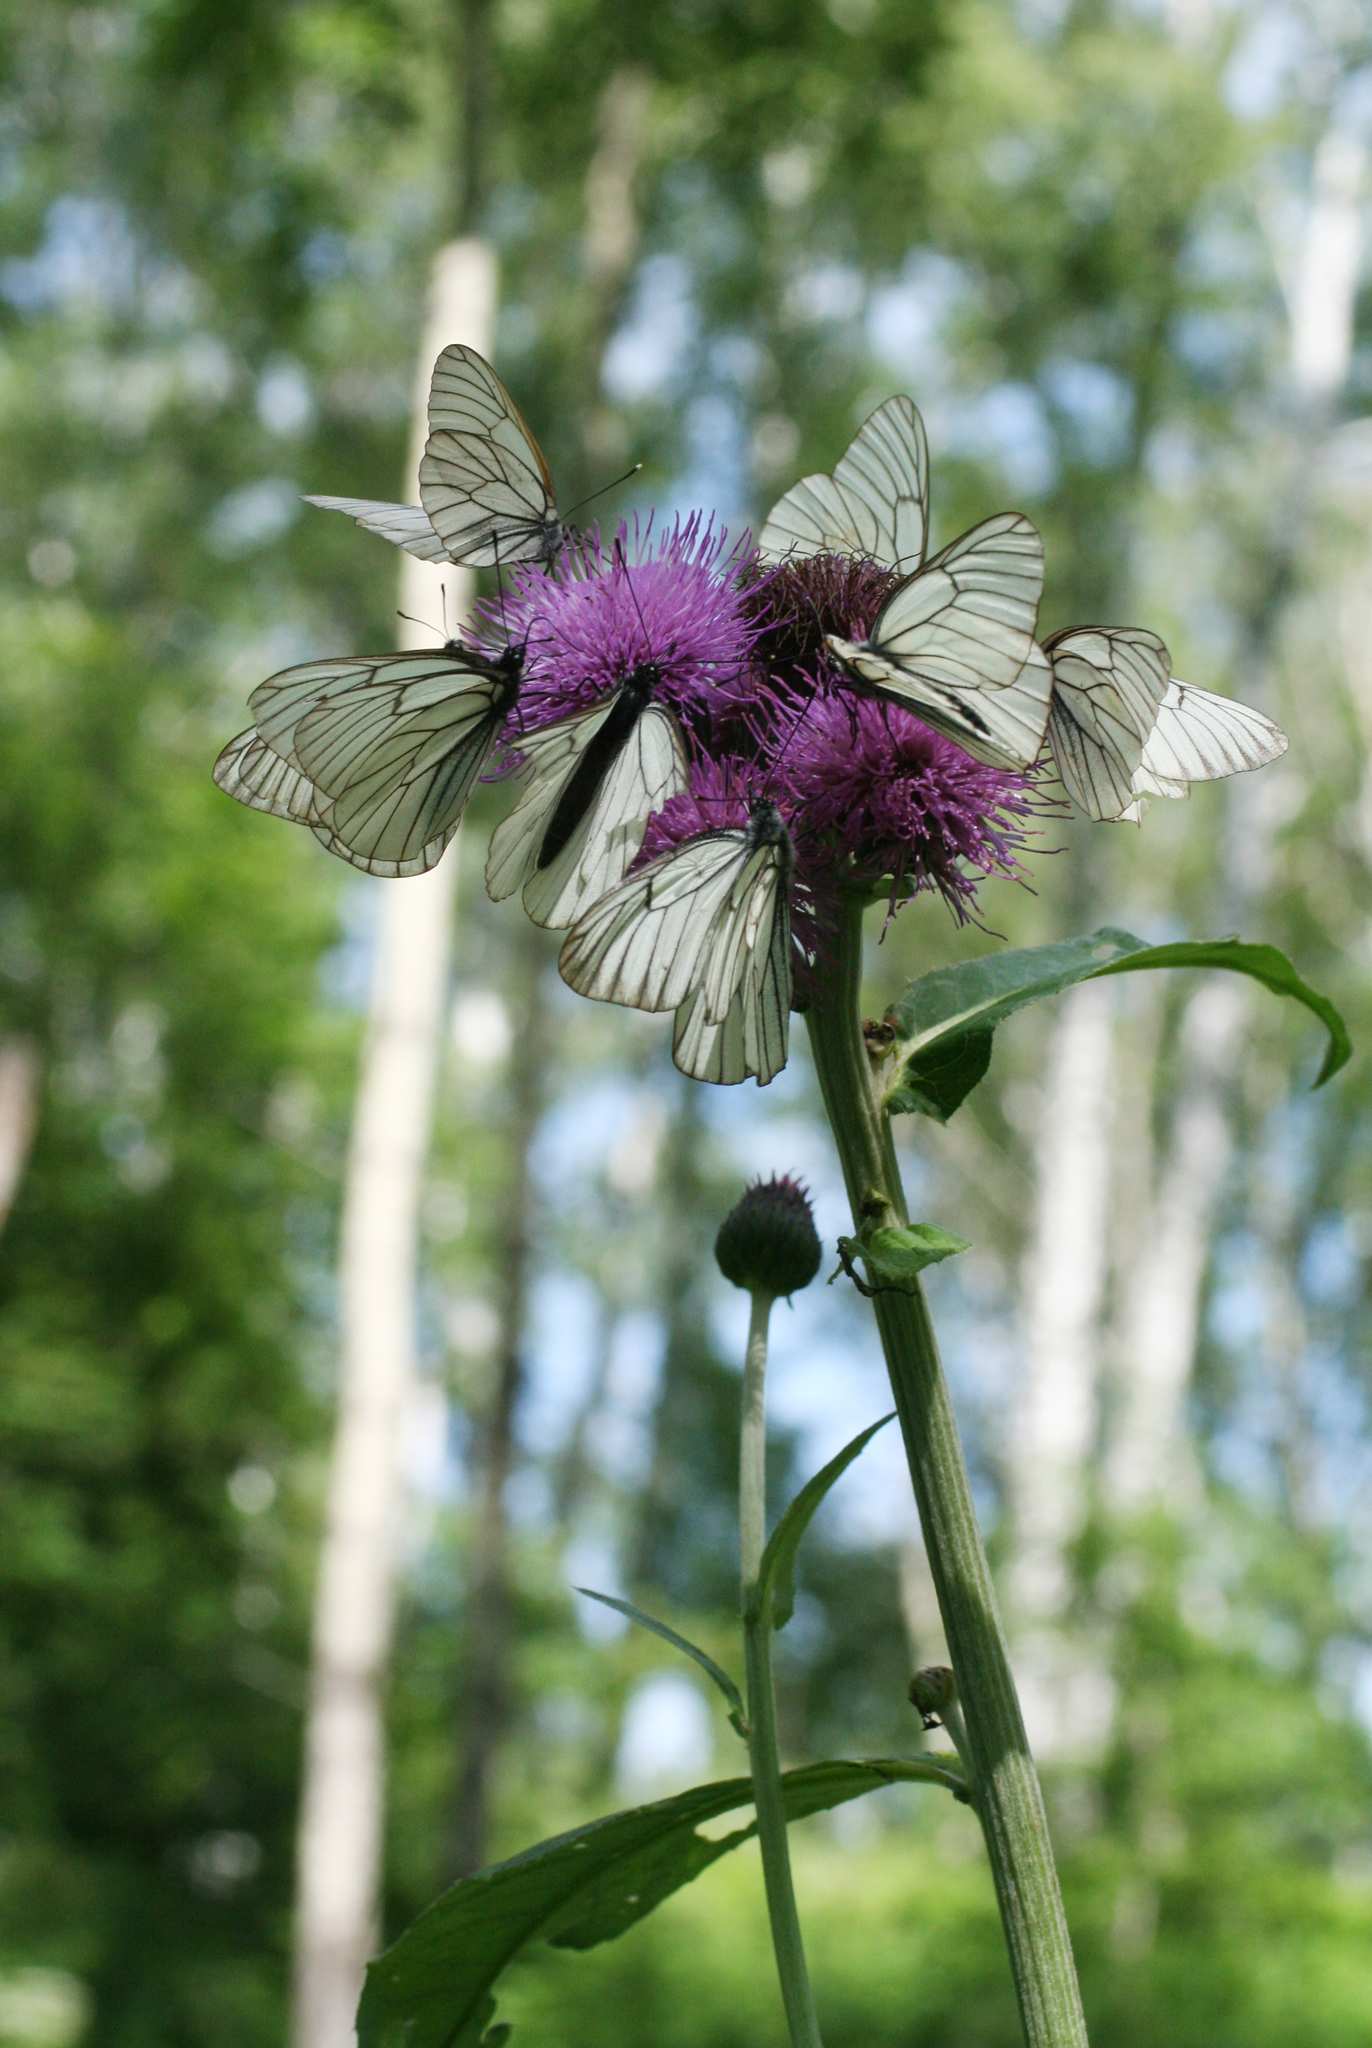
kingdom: Animalia
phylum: Arthropoda
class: Insecta
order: Lepidoptera
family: Pieridae
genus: Aporia
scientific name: Aporia crataegi
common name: Black-veined white
